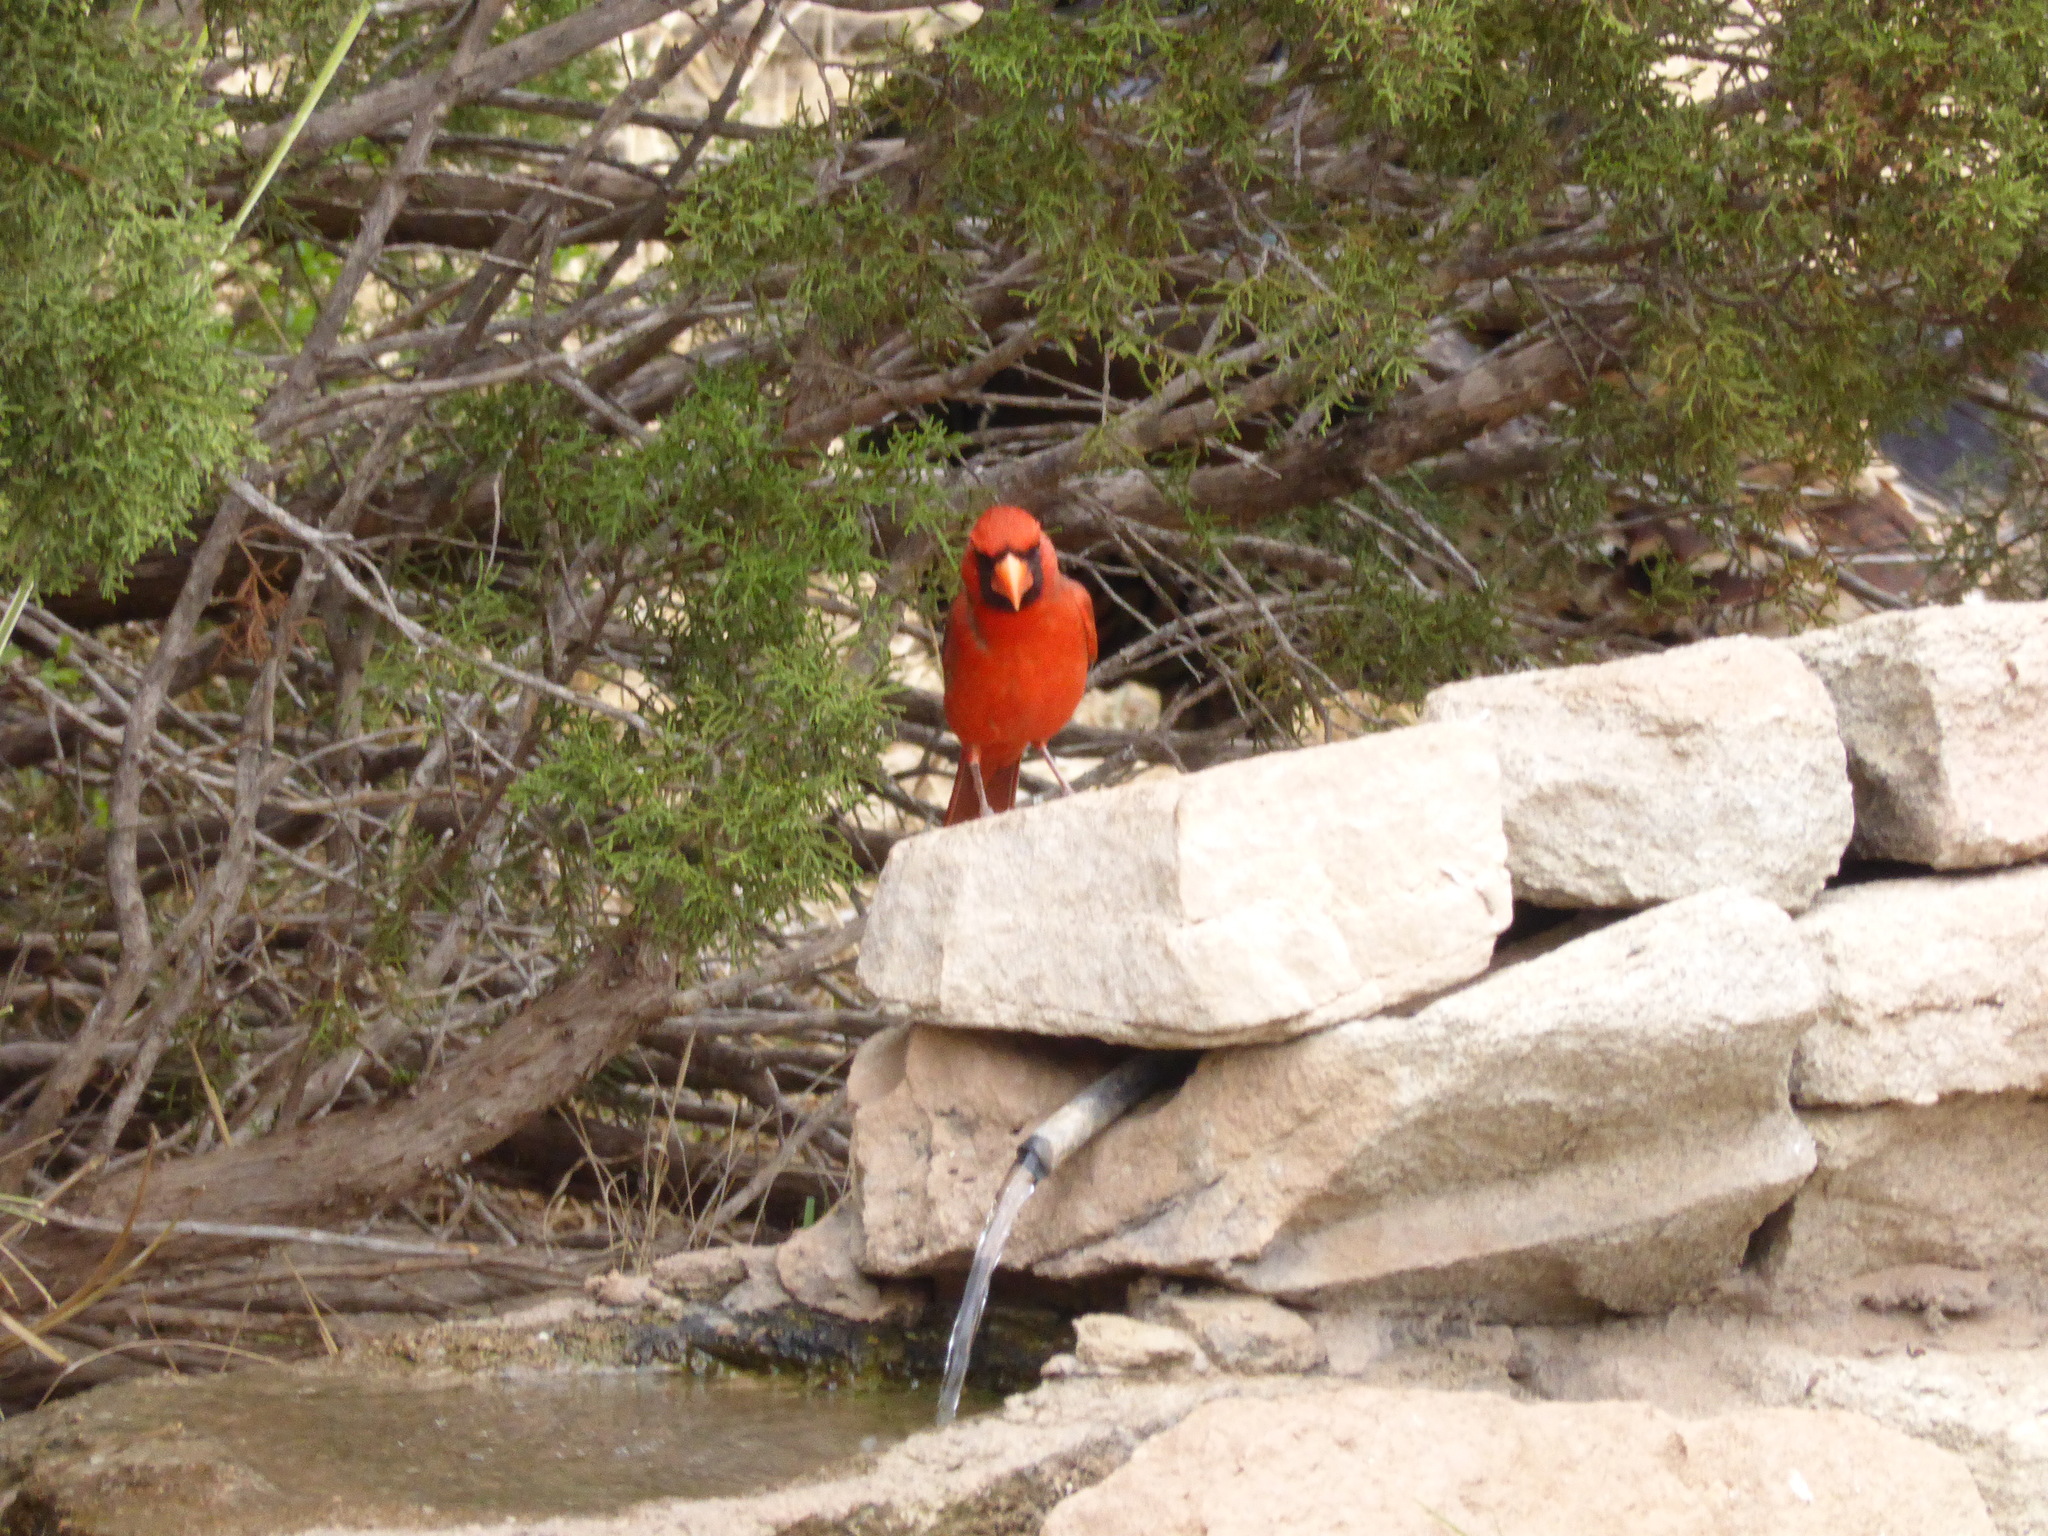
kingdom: Animalia
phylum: Chordata
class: Aves
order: Passeriformes
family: Cardinalidae
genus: Cardinalis
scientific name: Cardinalis cardinalis
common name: Northern cardinal
